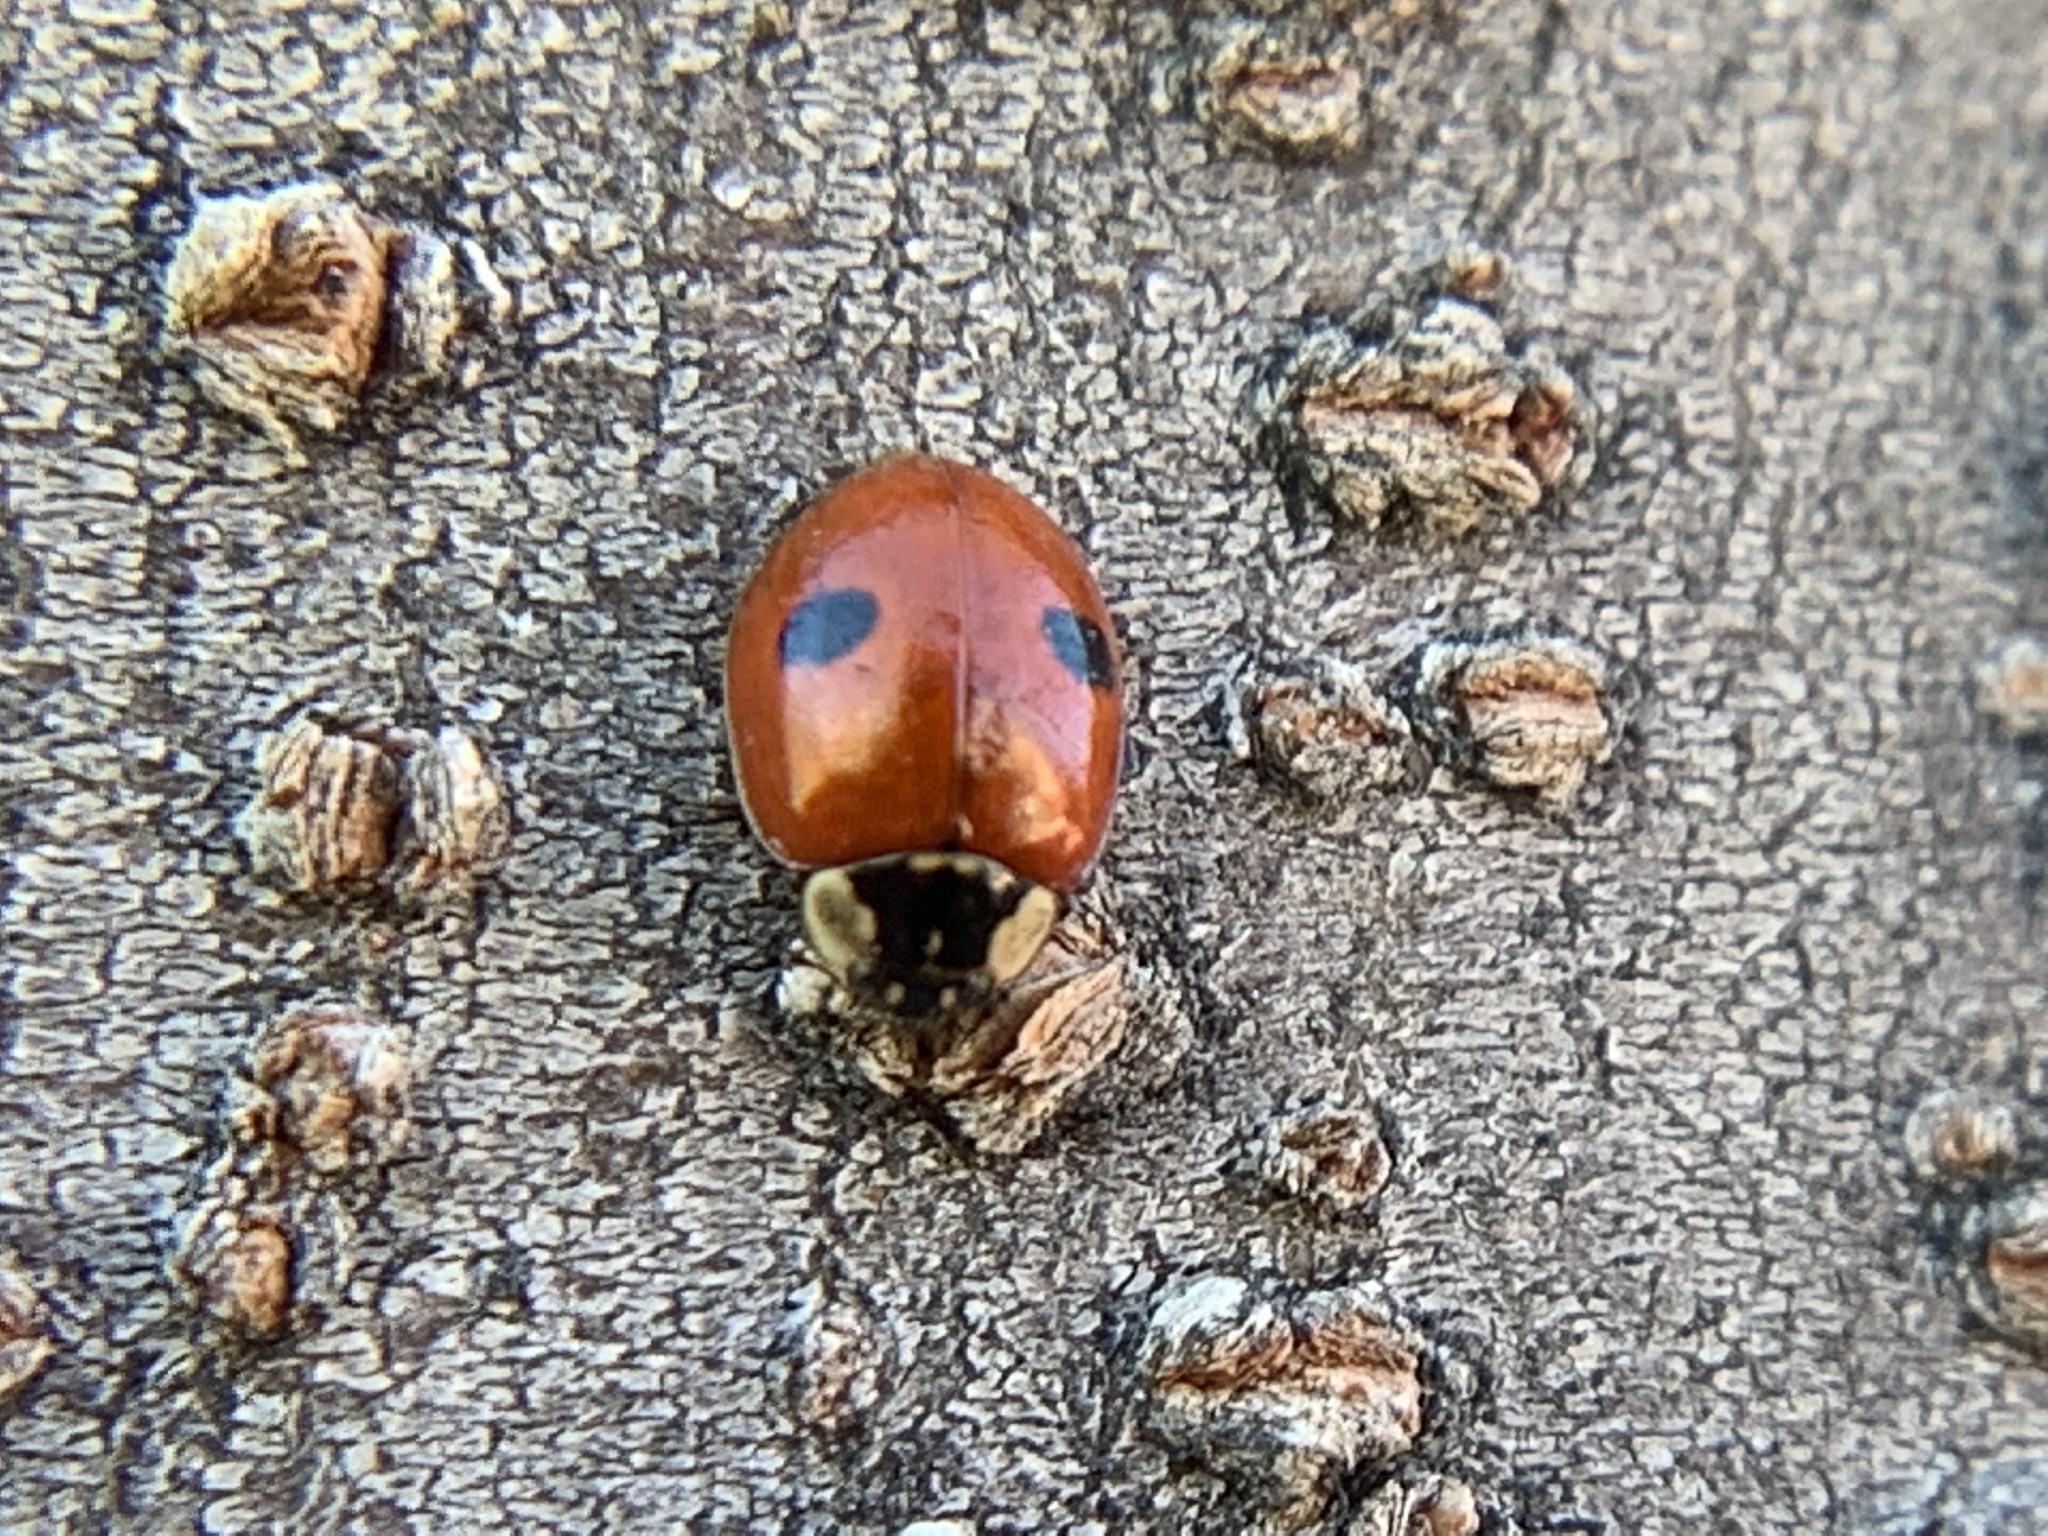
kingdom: Animalia
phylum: Arthropoda
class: Insecta
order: Coleoptera
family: Coccinellidae
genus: Adalia
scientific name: Adalia bipunctata
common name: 2-spot ladybird
